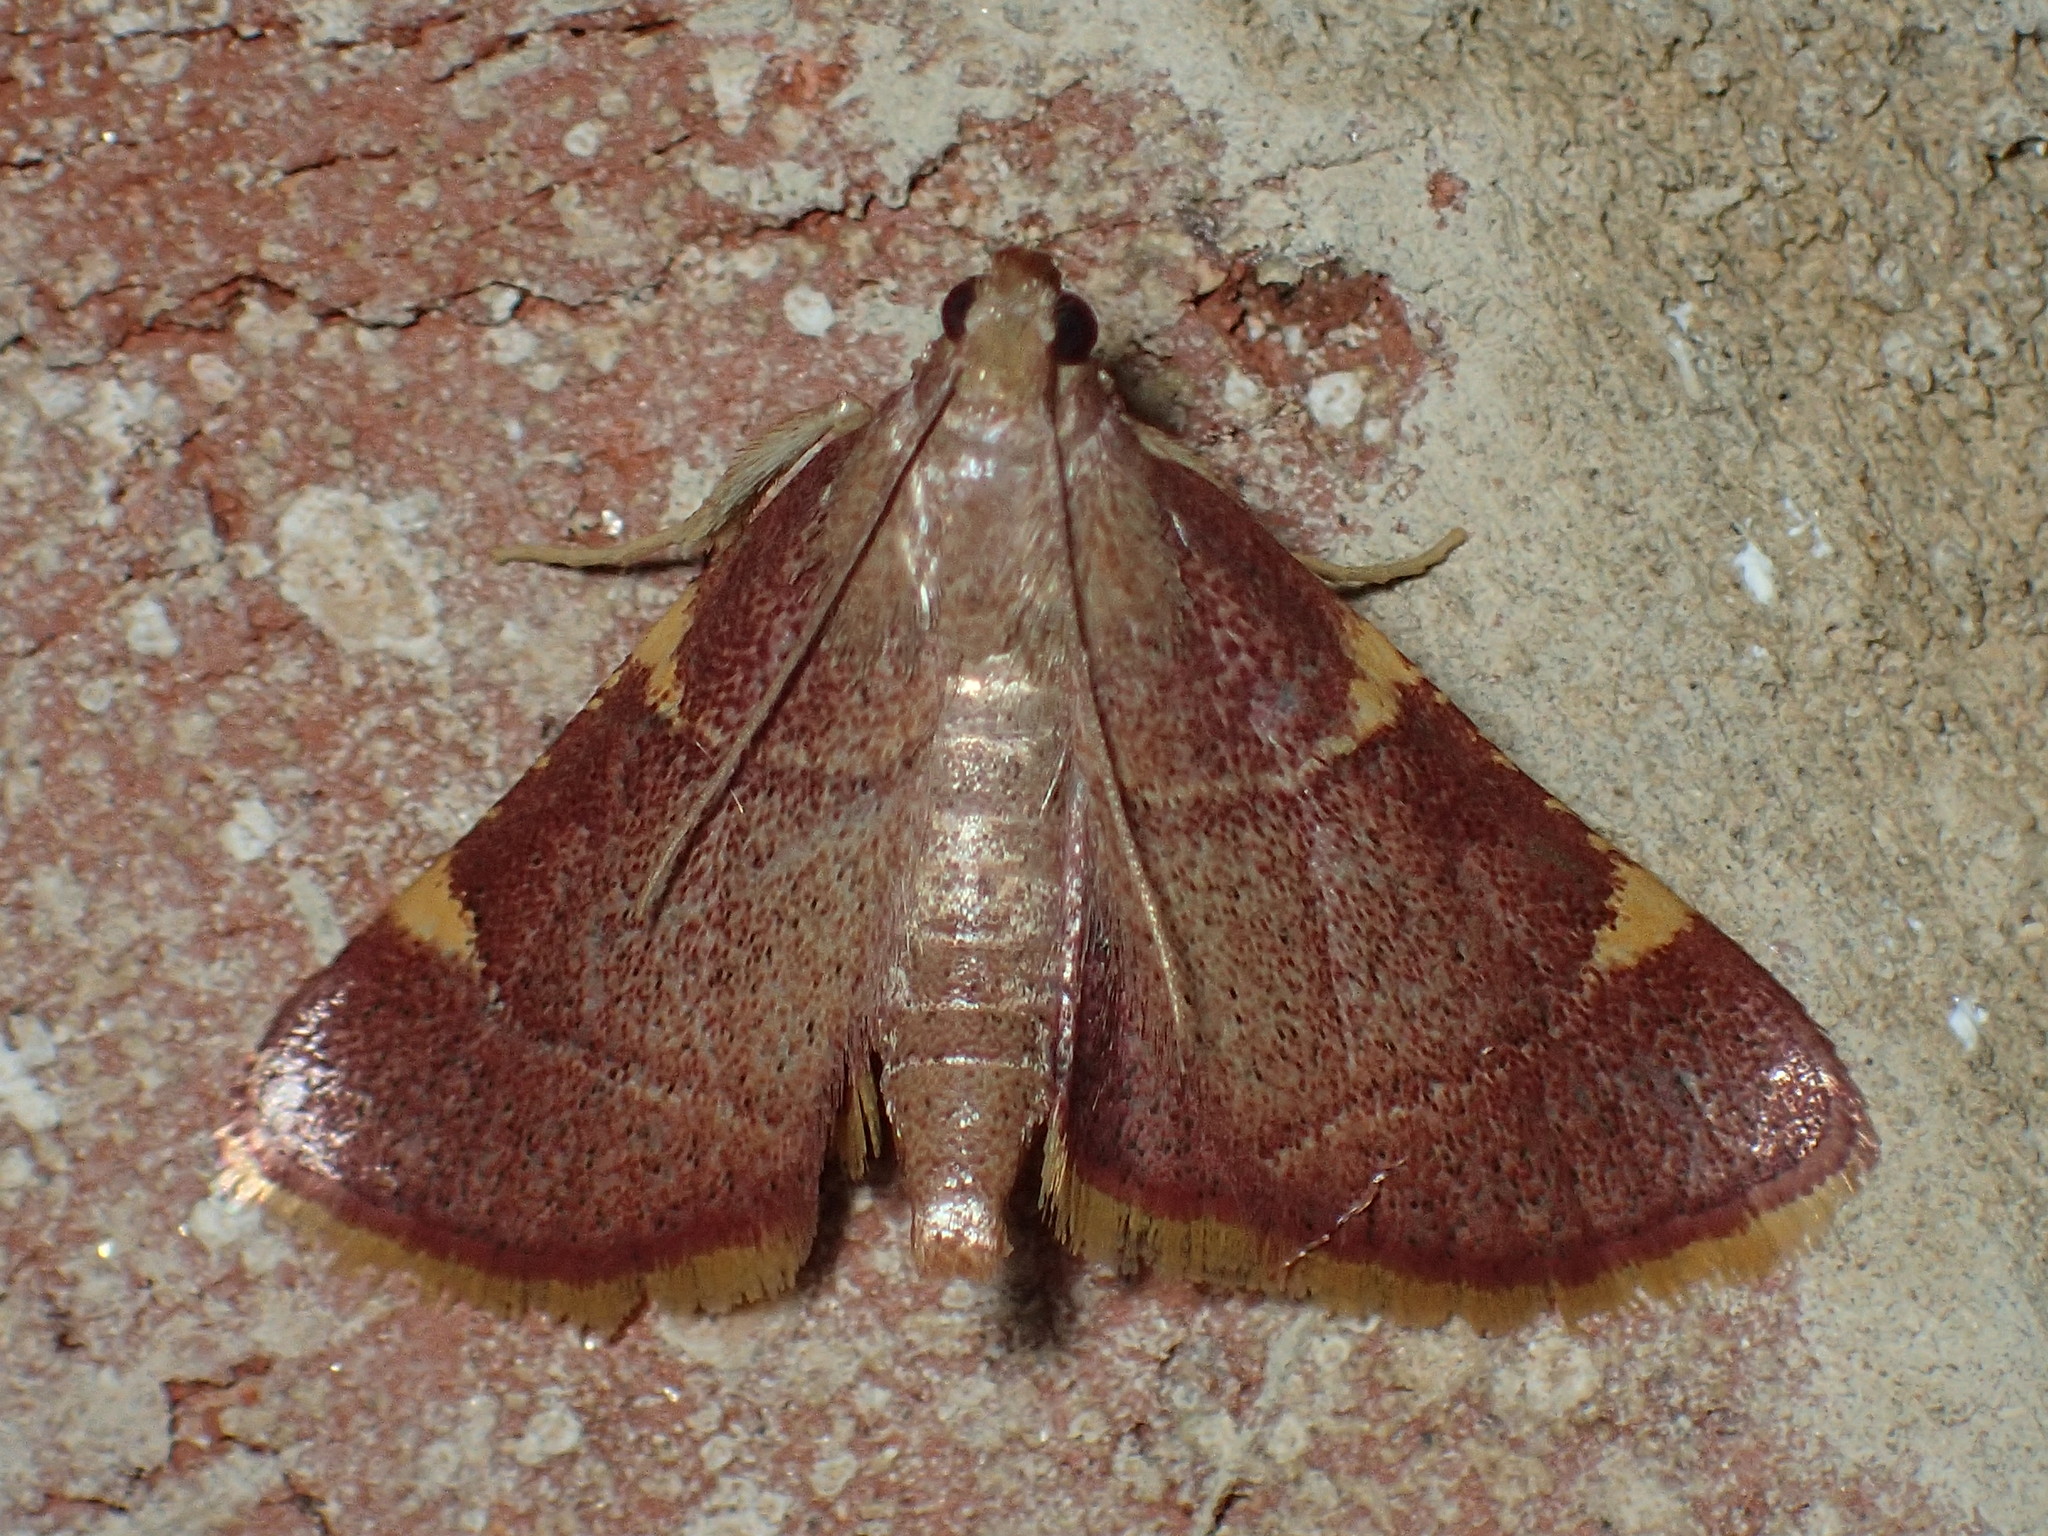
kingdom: Animalia
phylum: Arthropoda
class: Insecta
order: Lepidoptera
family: Pyralidae
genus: Hypsopygia
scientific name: Hypsopygia olinalis
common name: Yellow-fringed dolichomia moth
